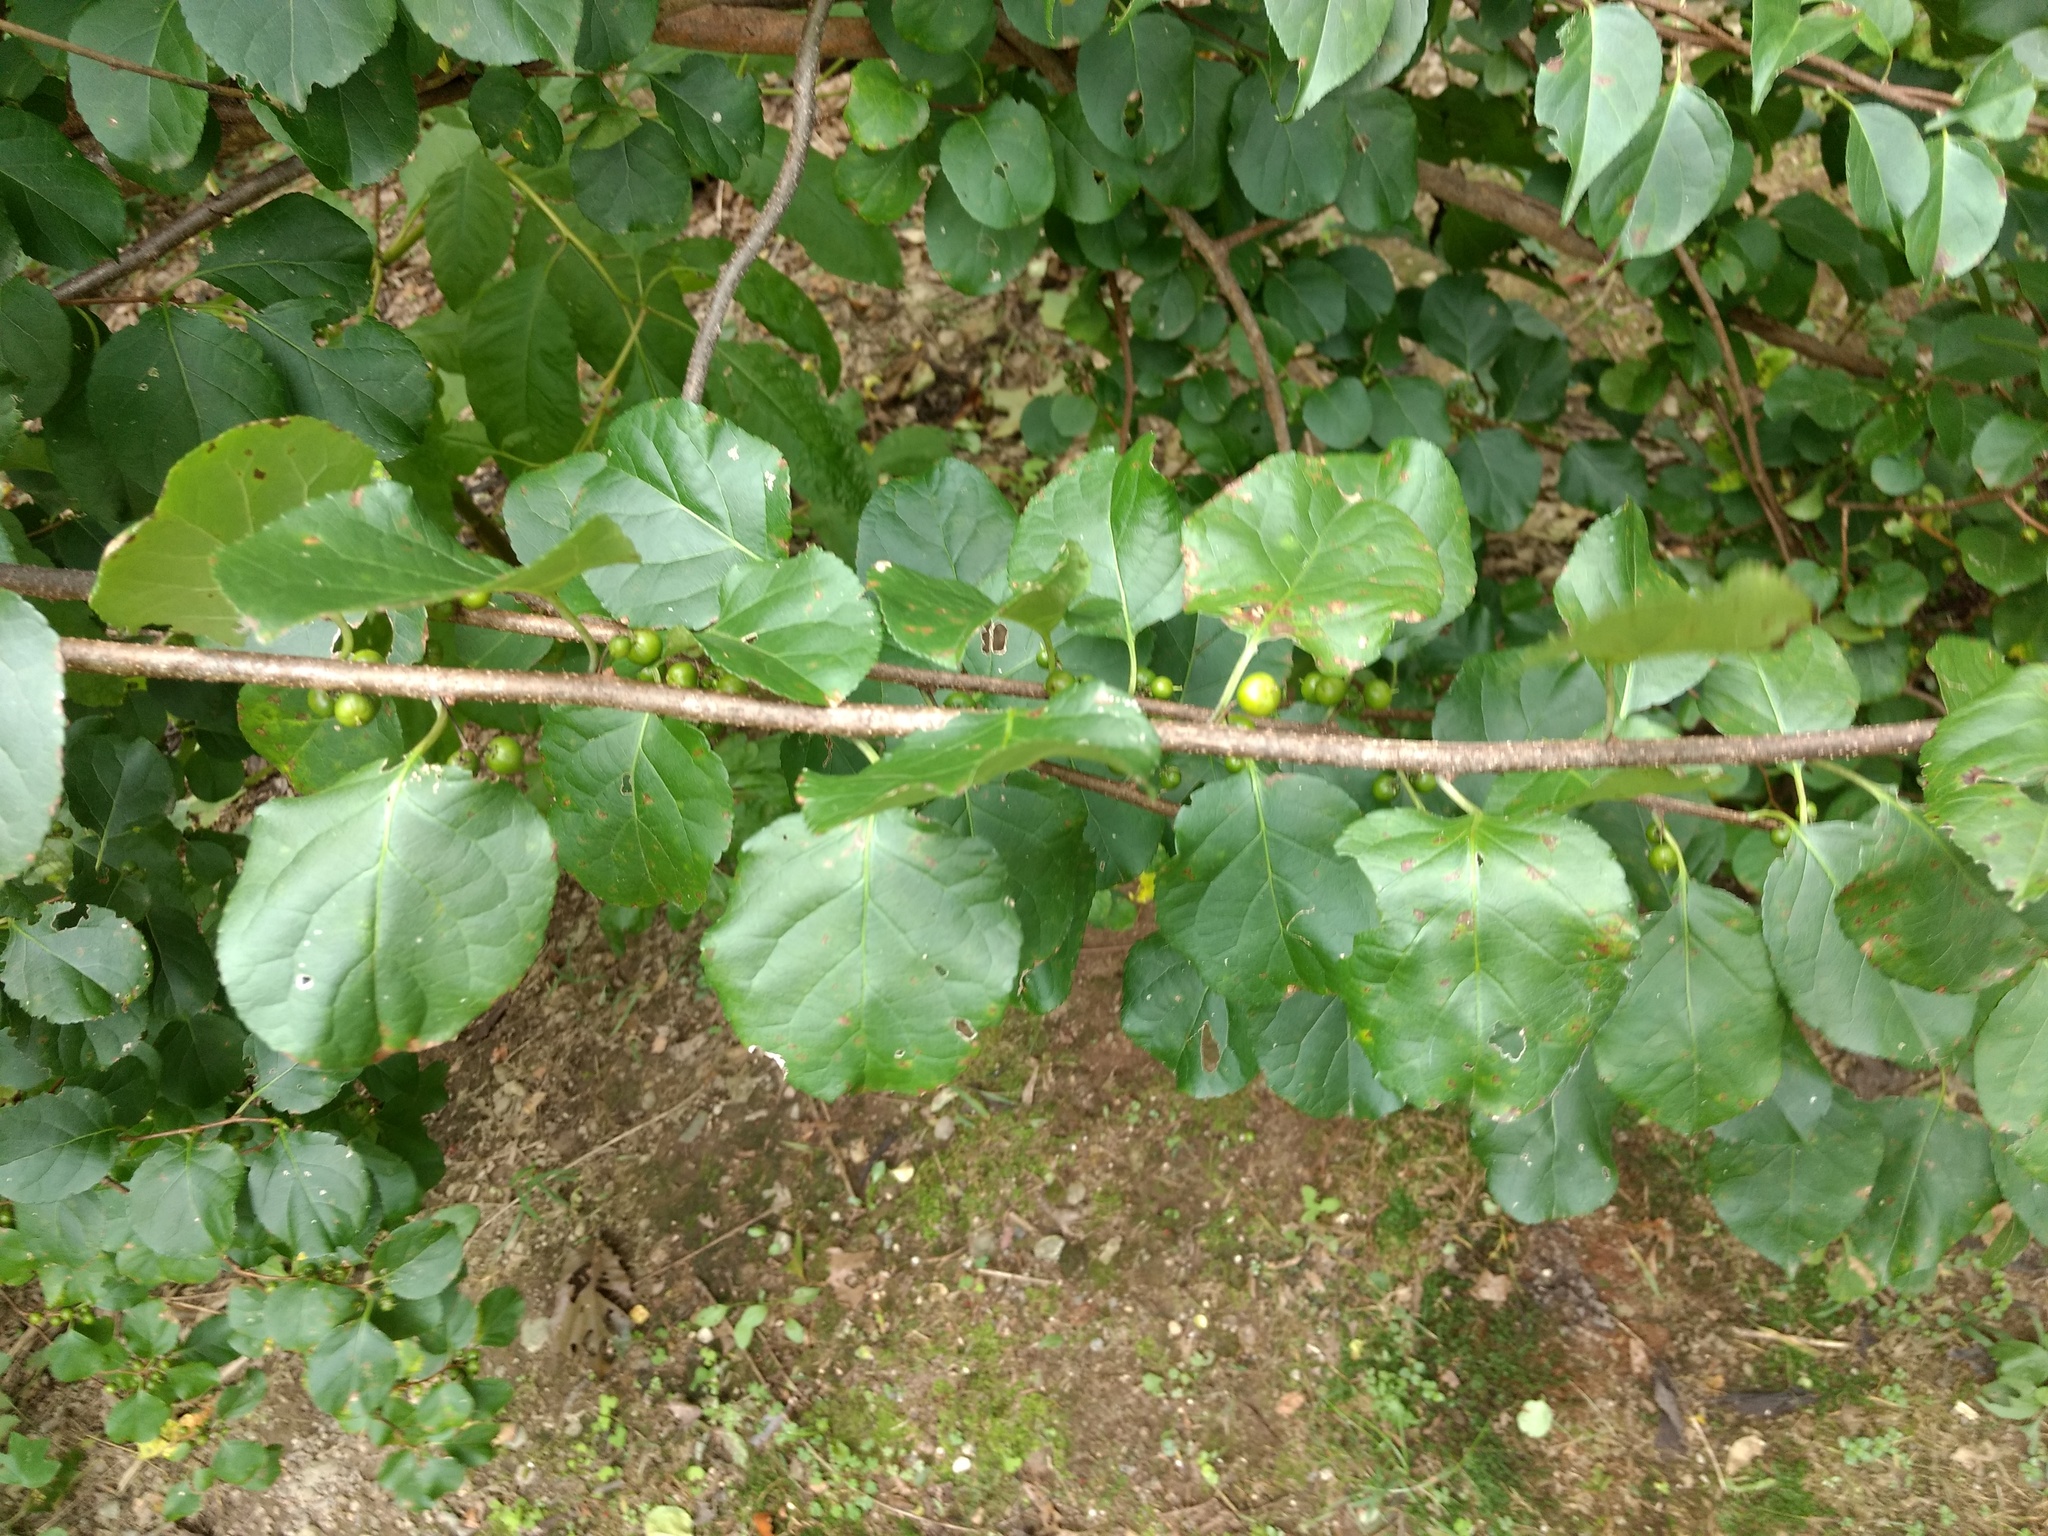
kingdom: Plantae
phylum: Tracheophyta
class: Magnoliopsida
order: Celastrales
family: Celastraceae
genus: Celastrus
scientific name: Celastrus orbiculatus
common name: Oriental bittersweet
